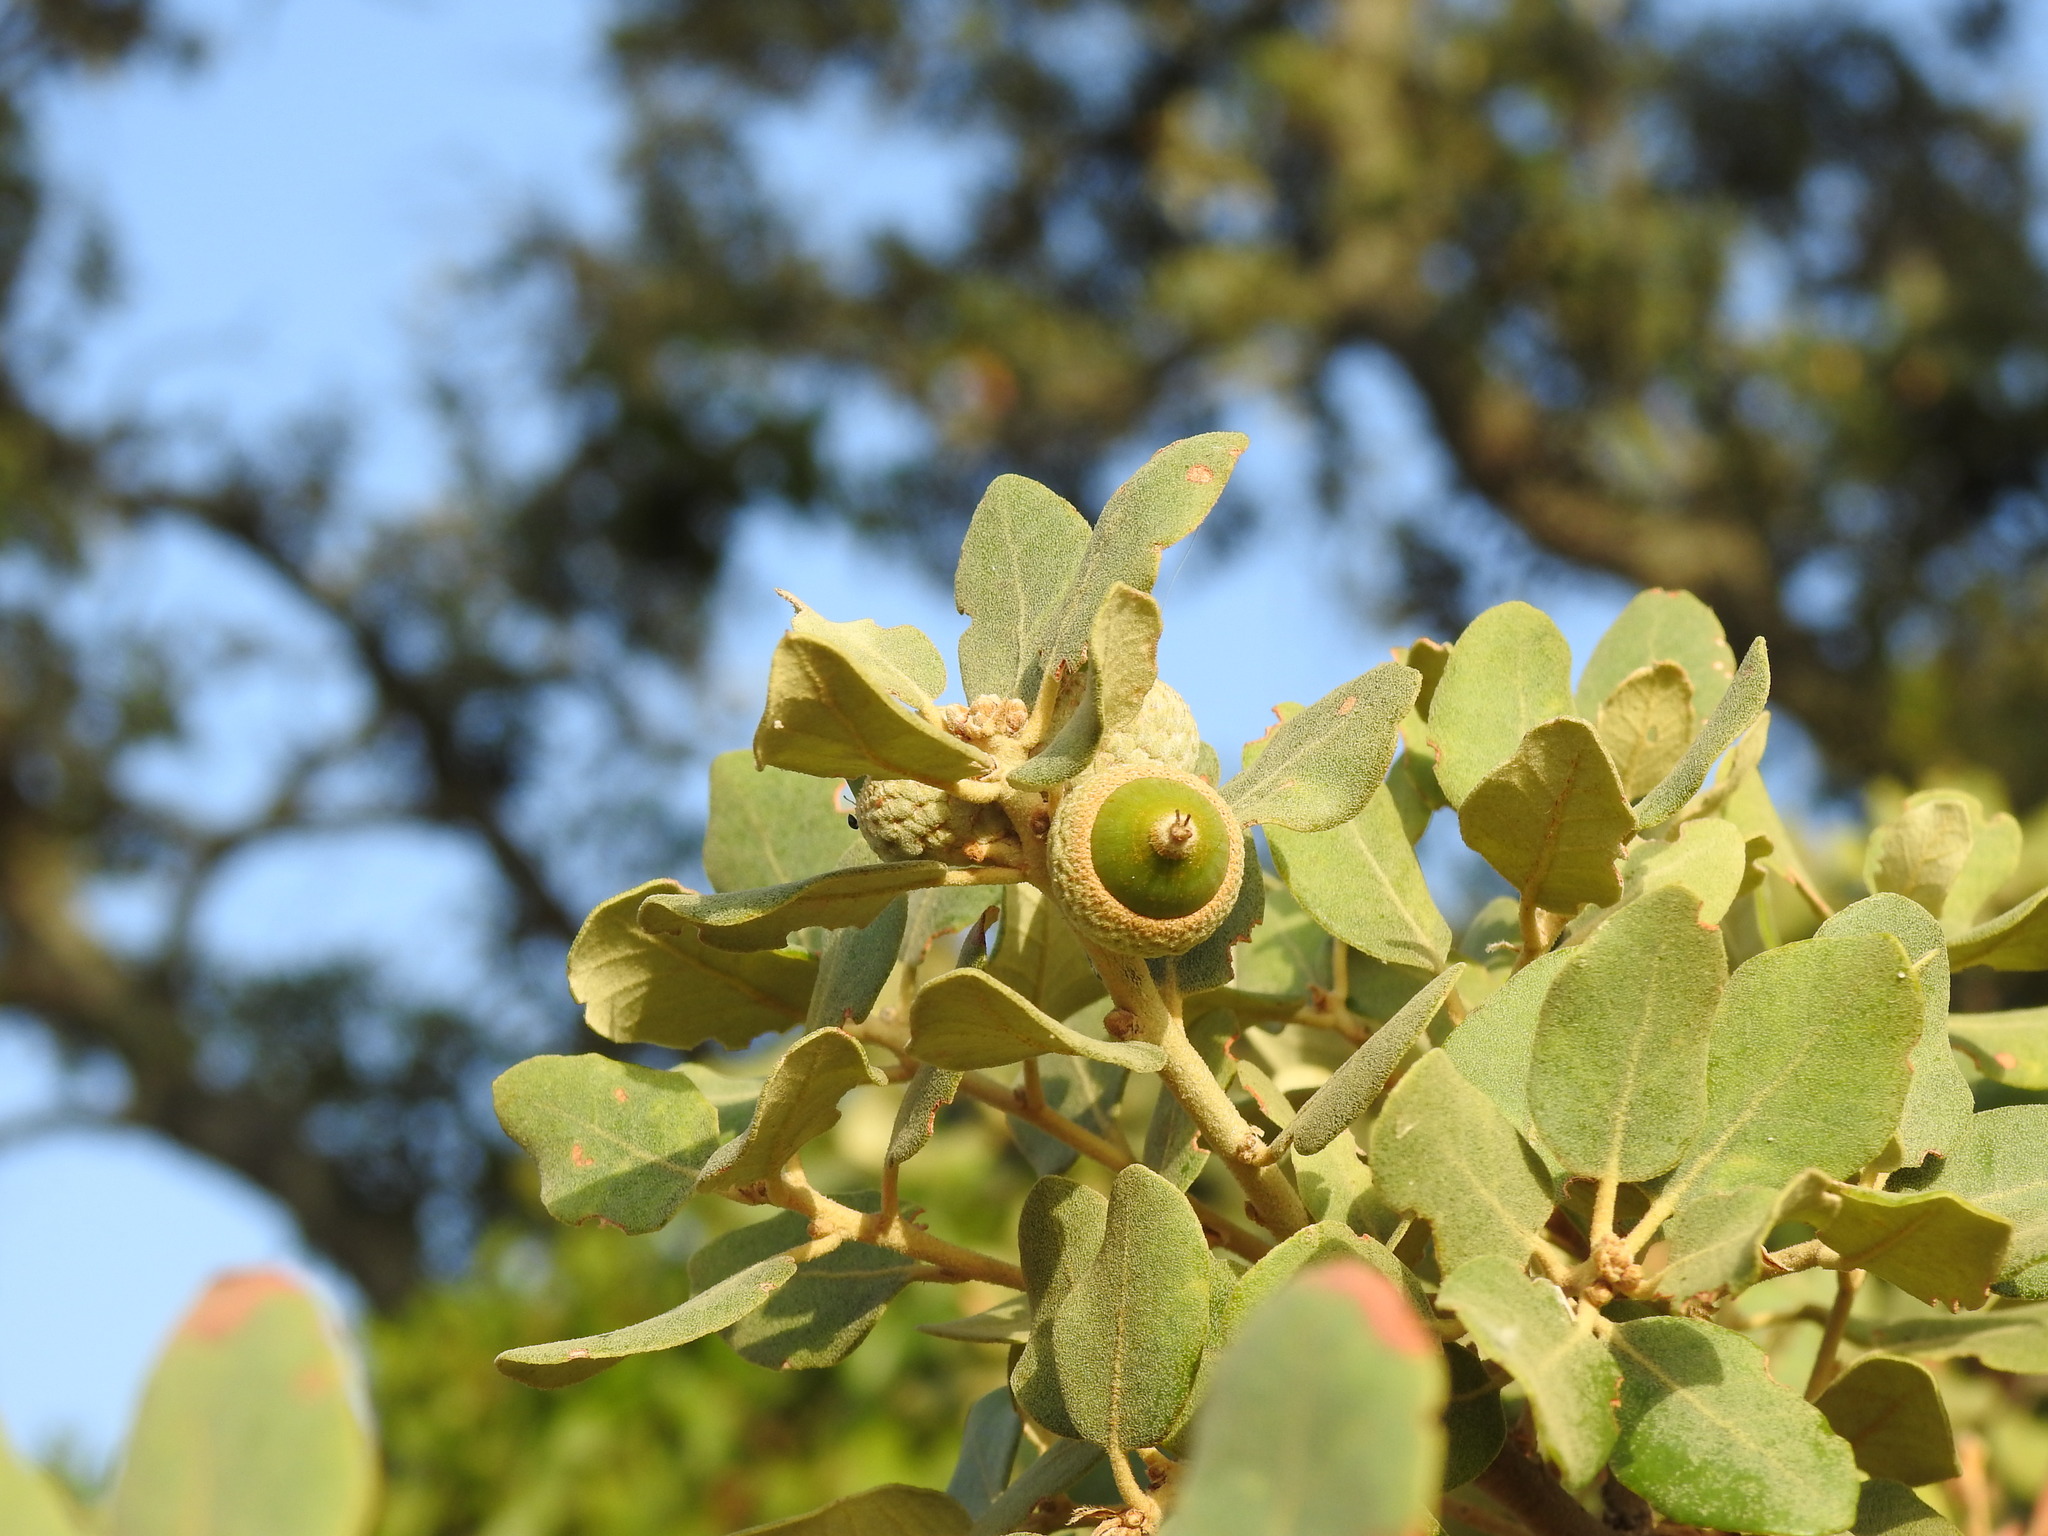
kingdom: Plantae
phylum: Tracheophyta
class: Magnoliopsida
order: Fagales
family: Fagaceae
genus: Quercus
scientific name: Quercus rotundifolia
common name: Holm oak
